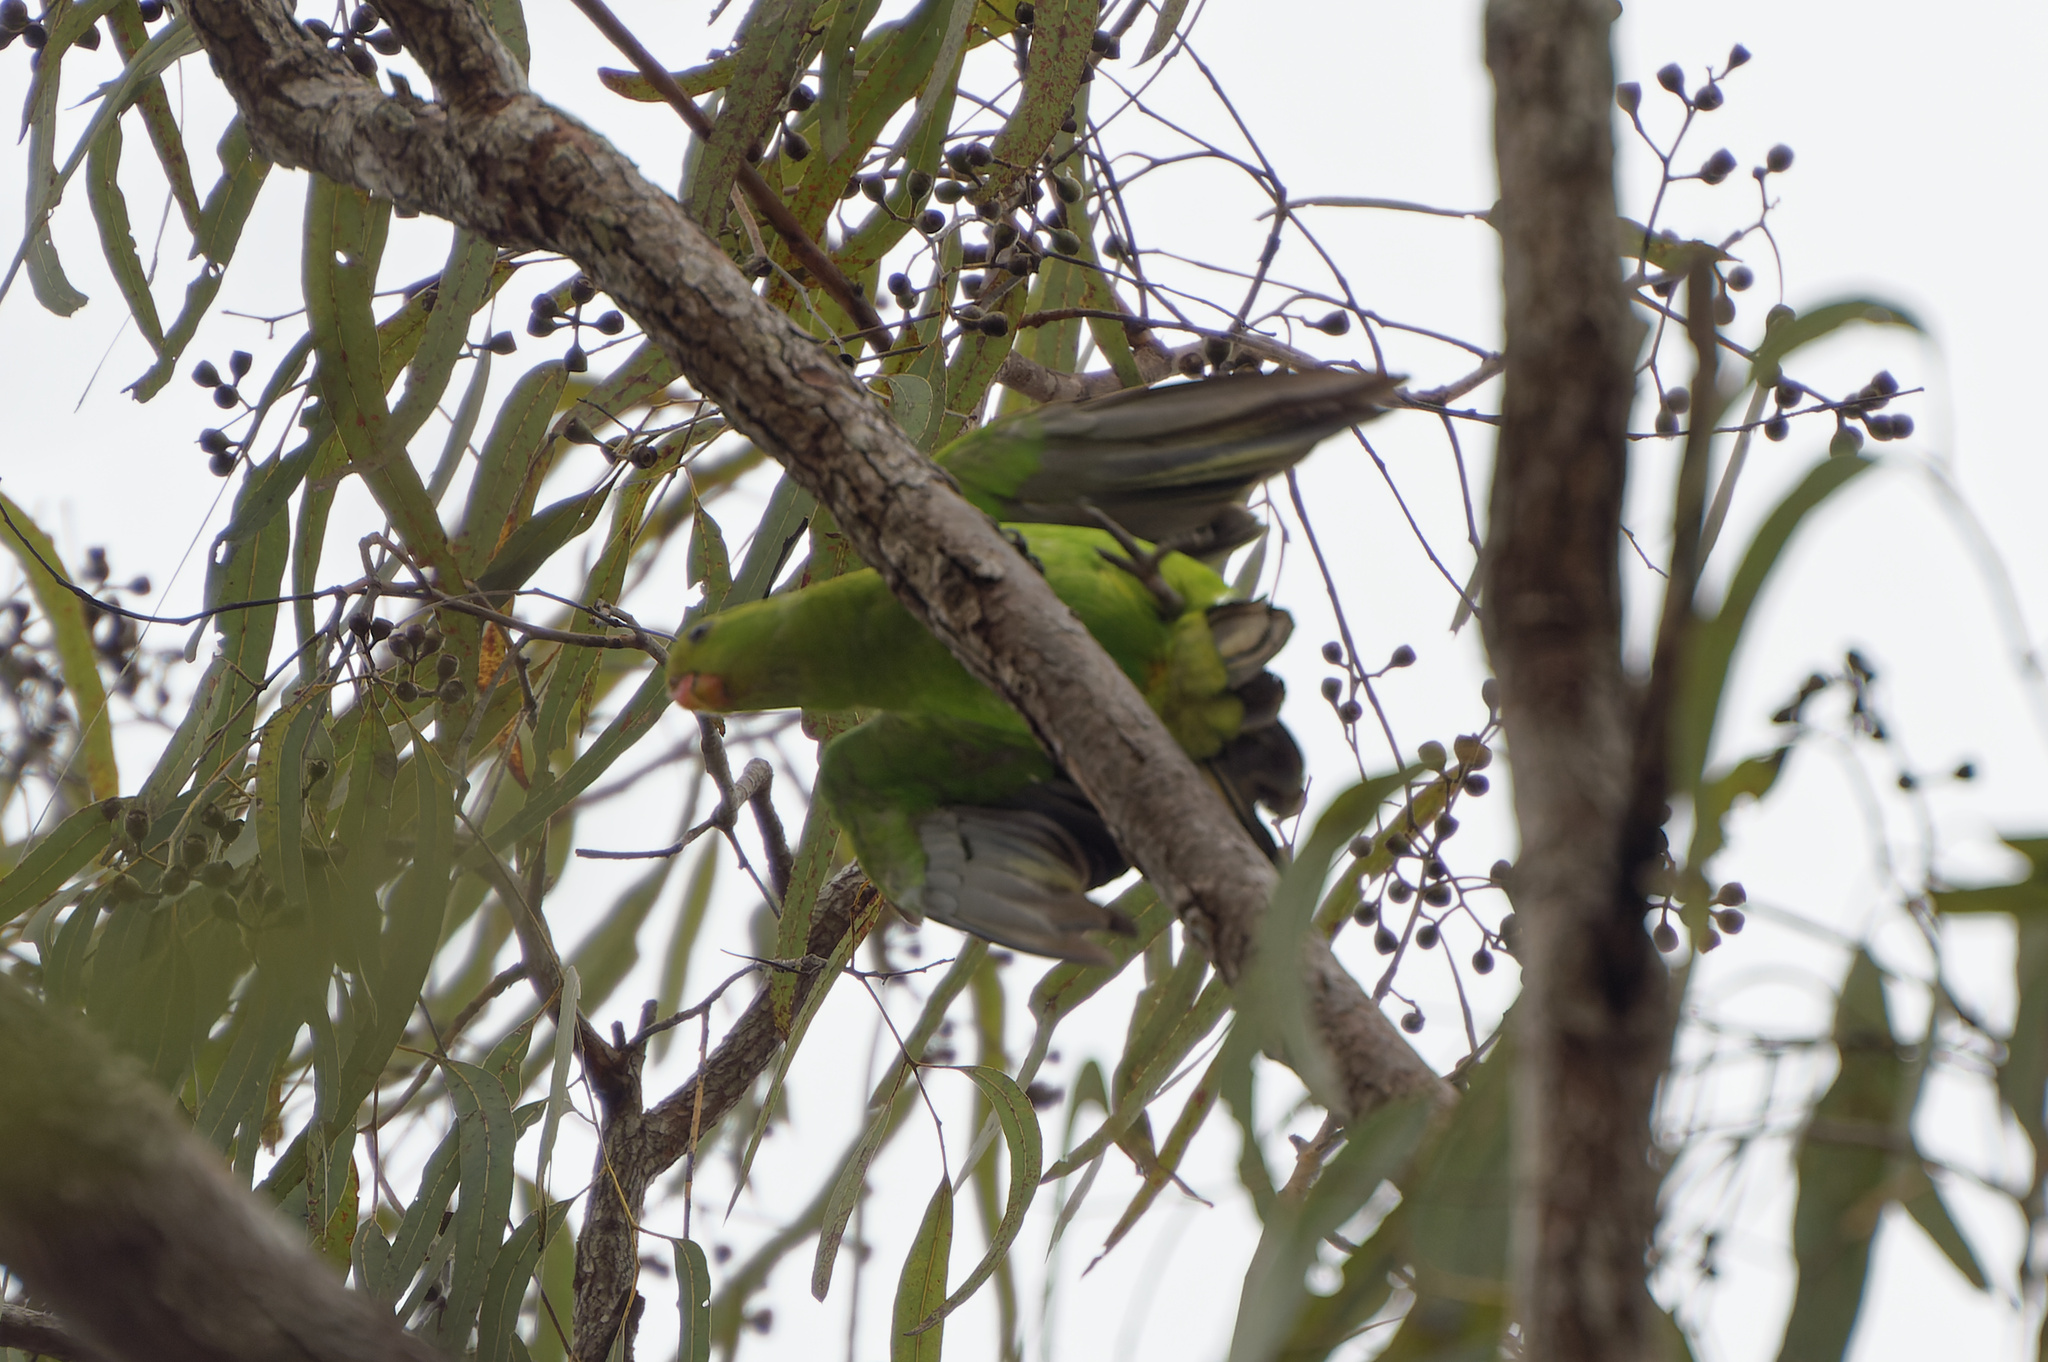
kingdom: Animalia
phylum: Chordata
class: Aves
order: Psittaciformes
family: Psittacidae
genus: Aprosmictus
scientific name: Aprosmictus erythropterus
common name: Red-winged parrot
